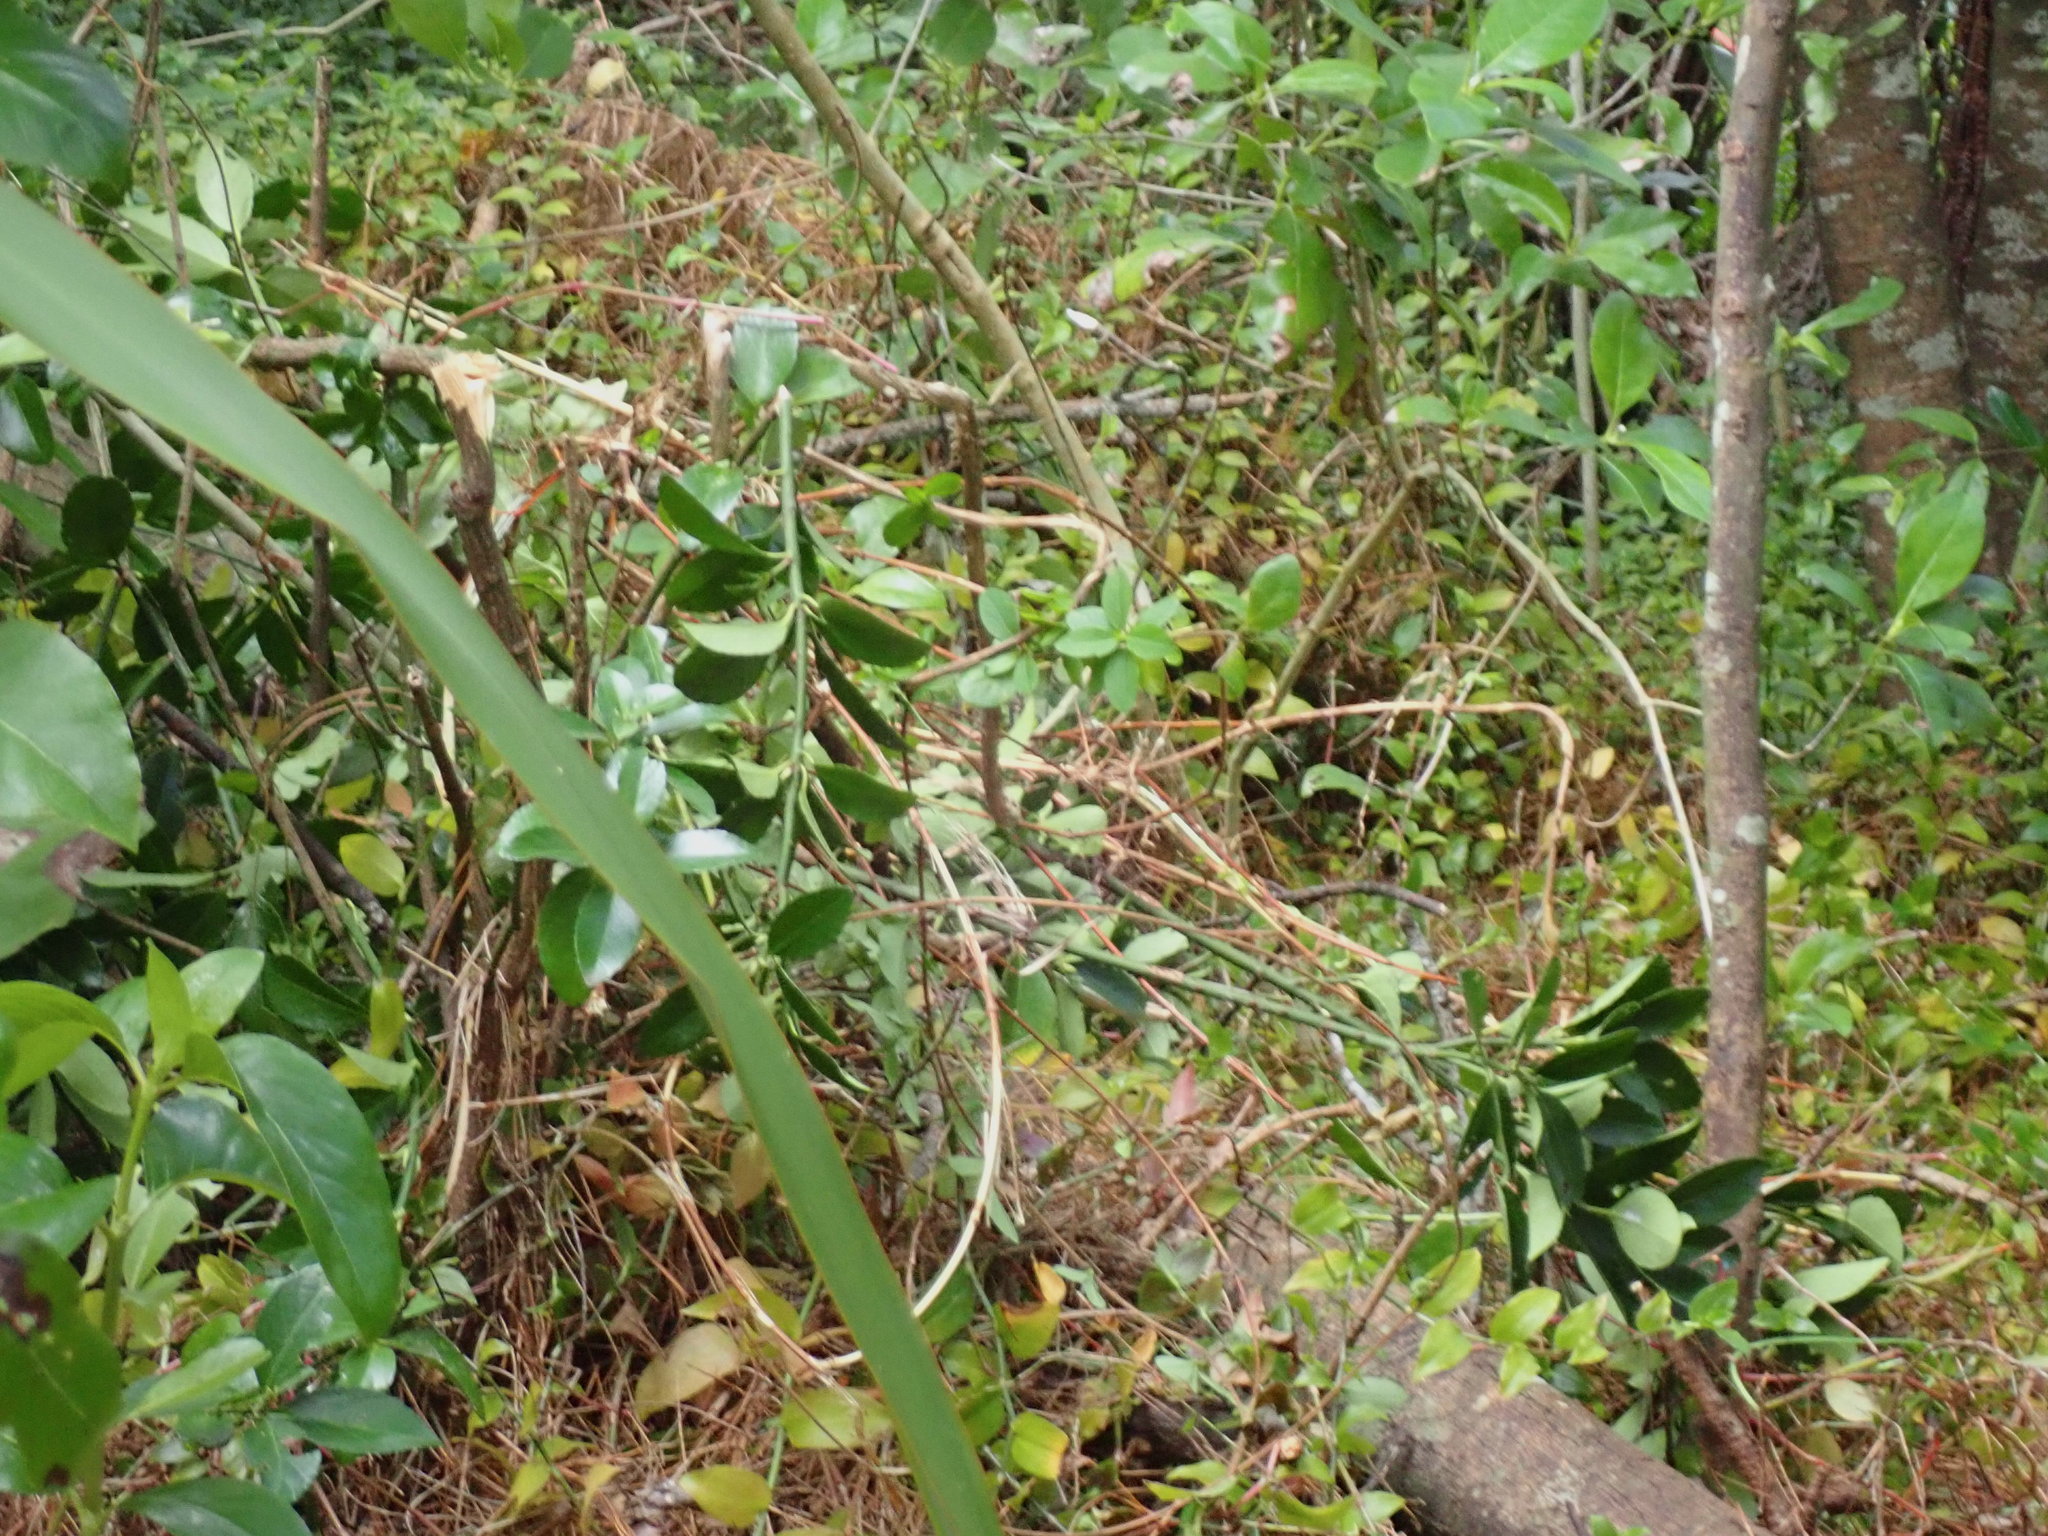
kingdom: Plantae
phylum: Tracheophyta
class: Magnoliopsida
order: Celastrales
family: Celastraceae
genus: Euonymus
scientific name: Euonymus japonicus
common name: Japanese spindletree
